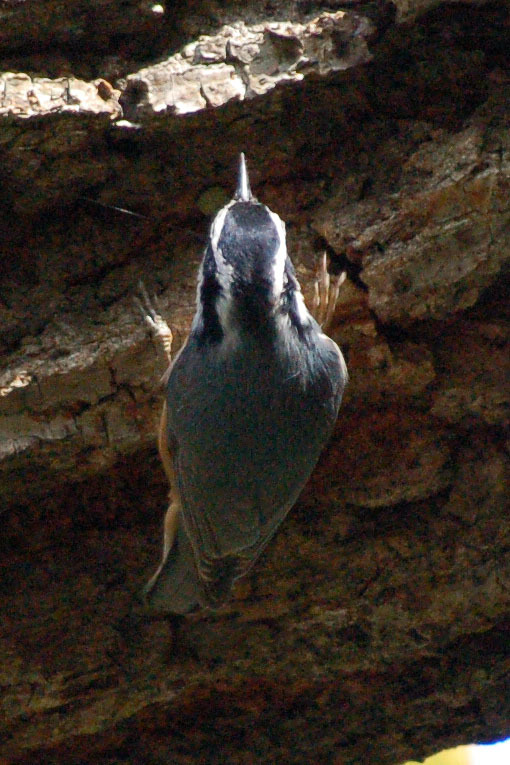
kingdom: Animalia
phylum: Chordata
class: Aves
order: Passeriformes
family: Sittidae
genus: Sitta
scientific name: Sitta canadensis
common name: Red-breasted nuthatch
